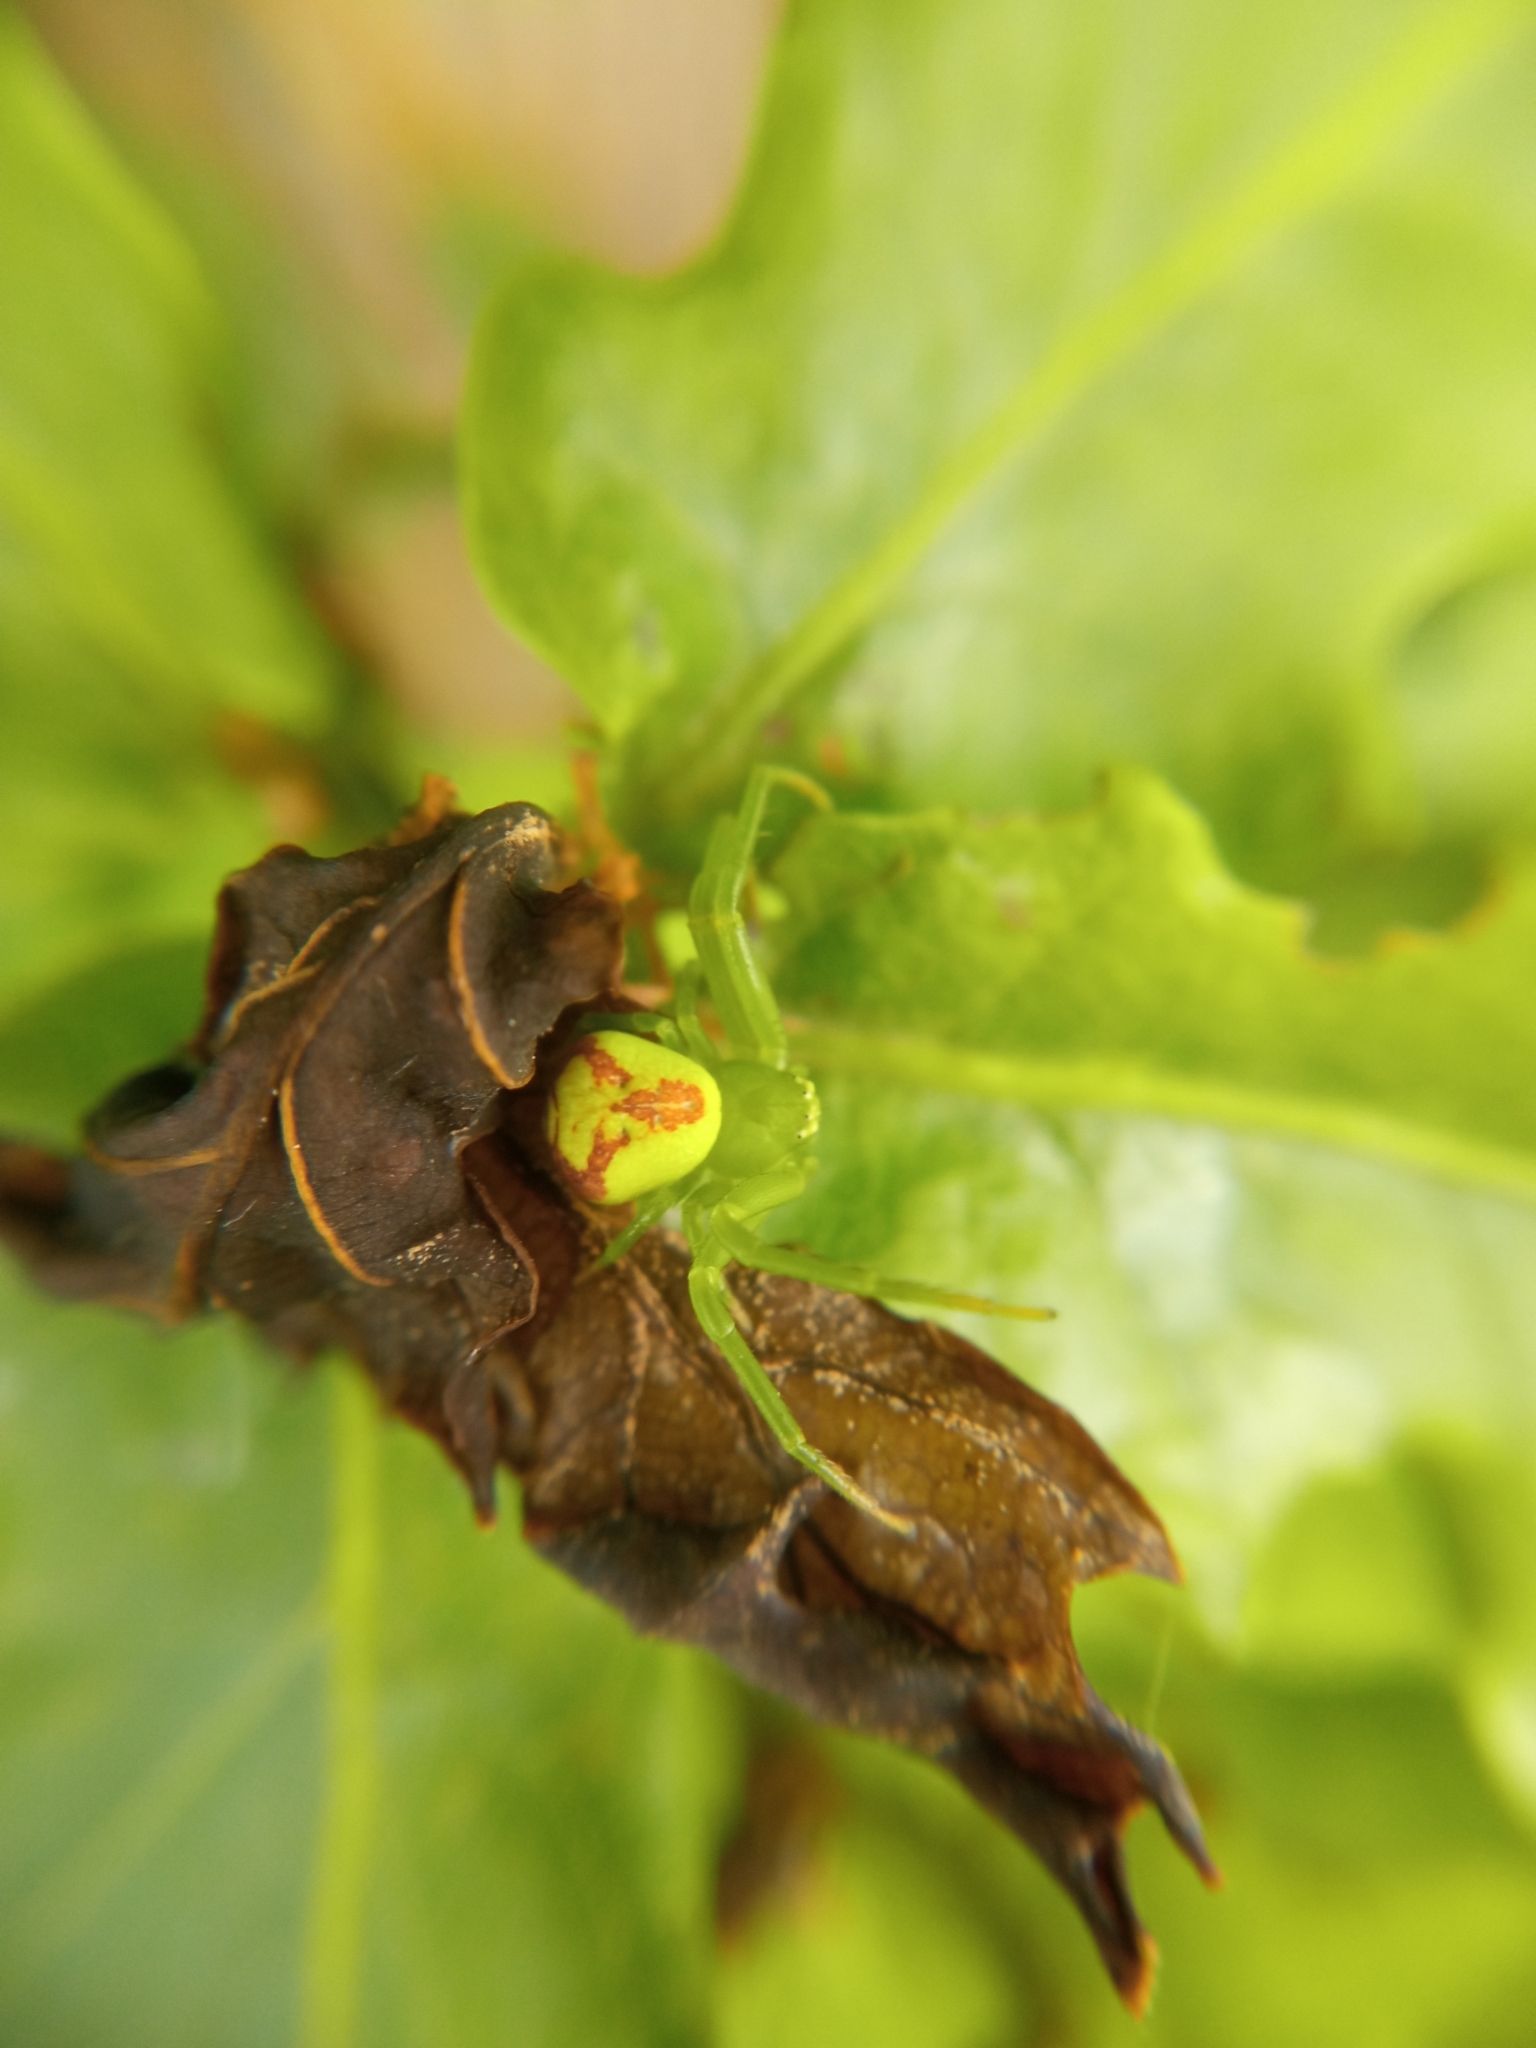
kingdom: Animalia
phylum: Arthropoda
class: Arachnida
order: Araneae
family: Thomisidae
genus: Ebrechtella
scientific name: Ebrechtella tricuspidata
